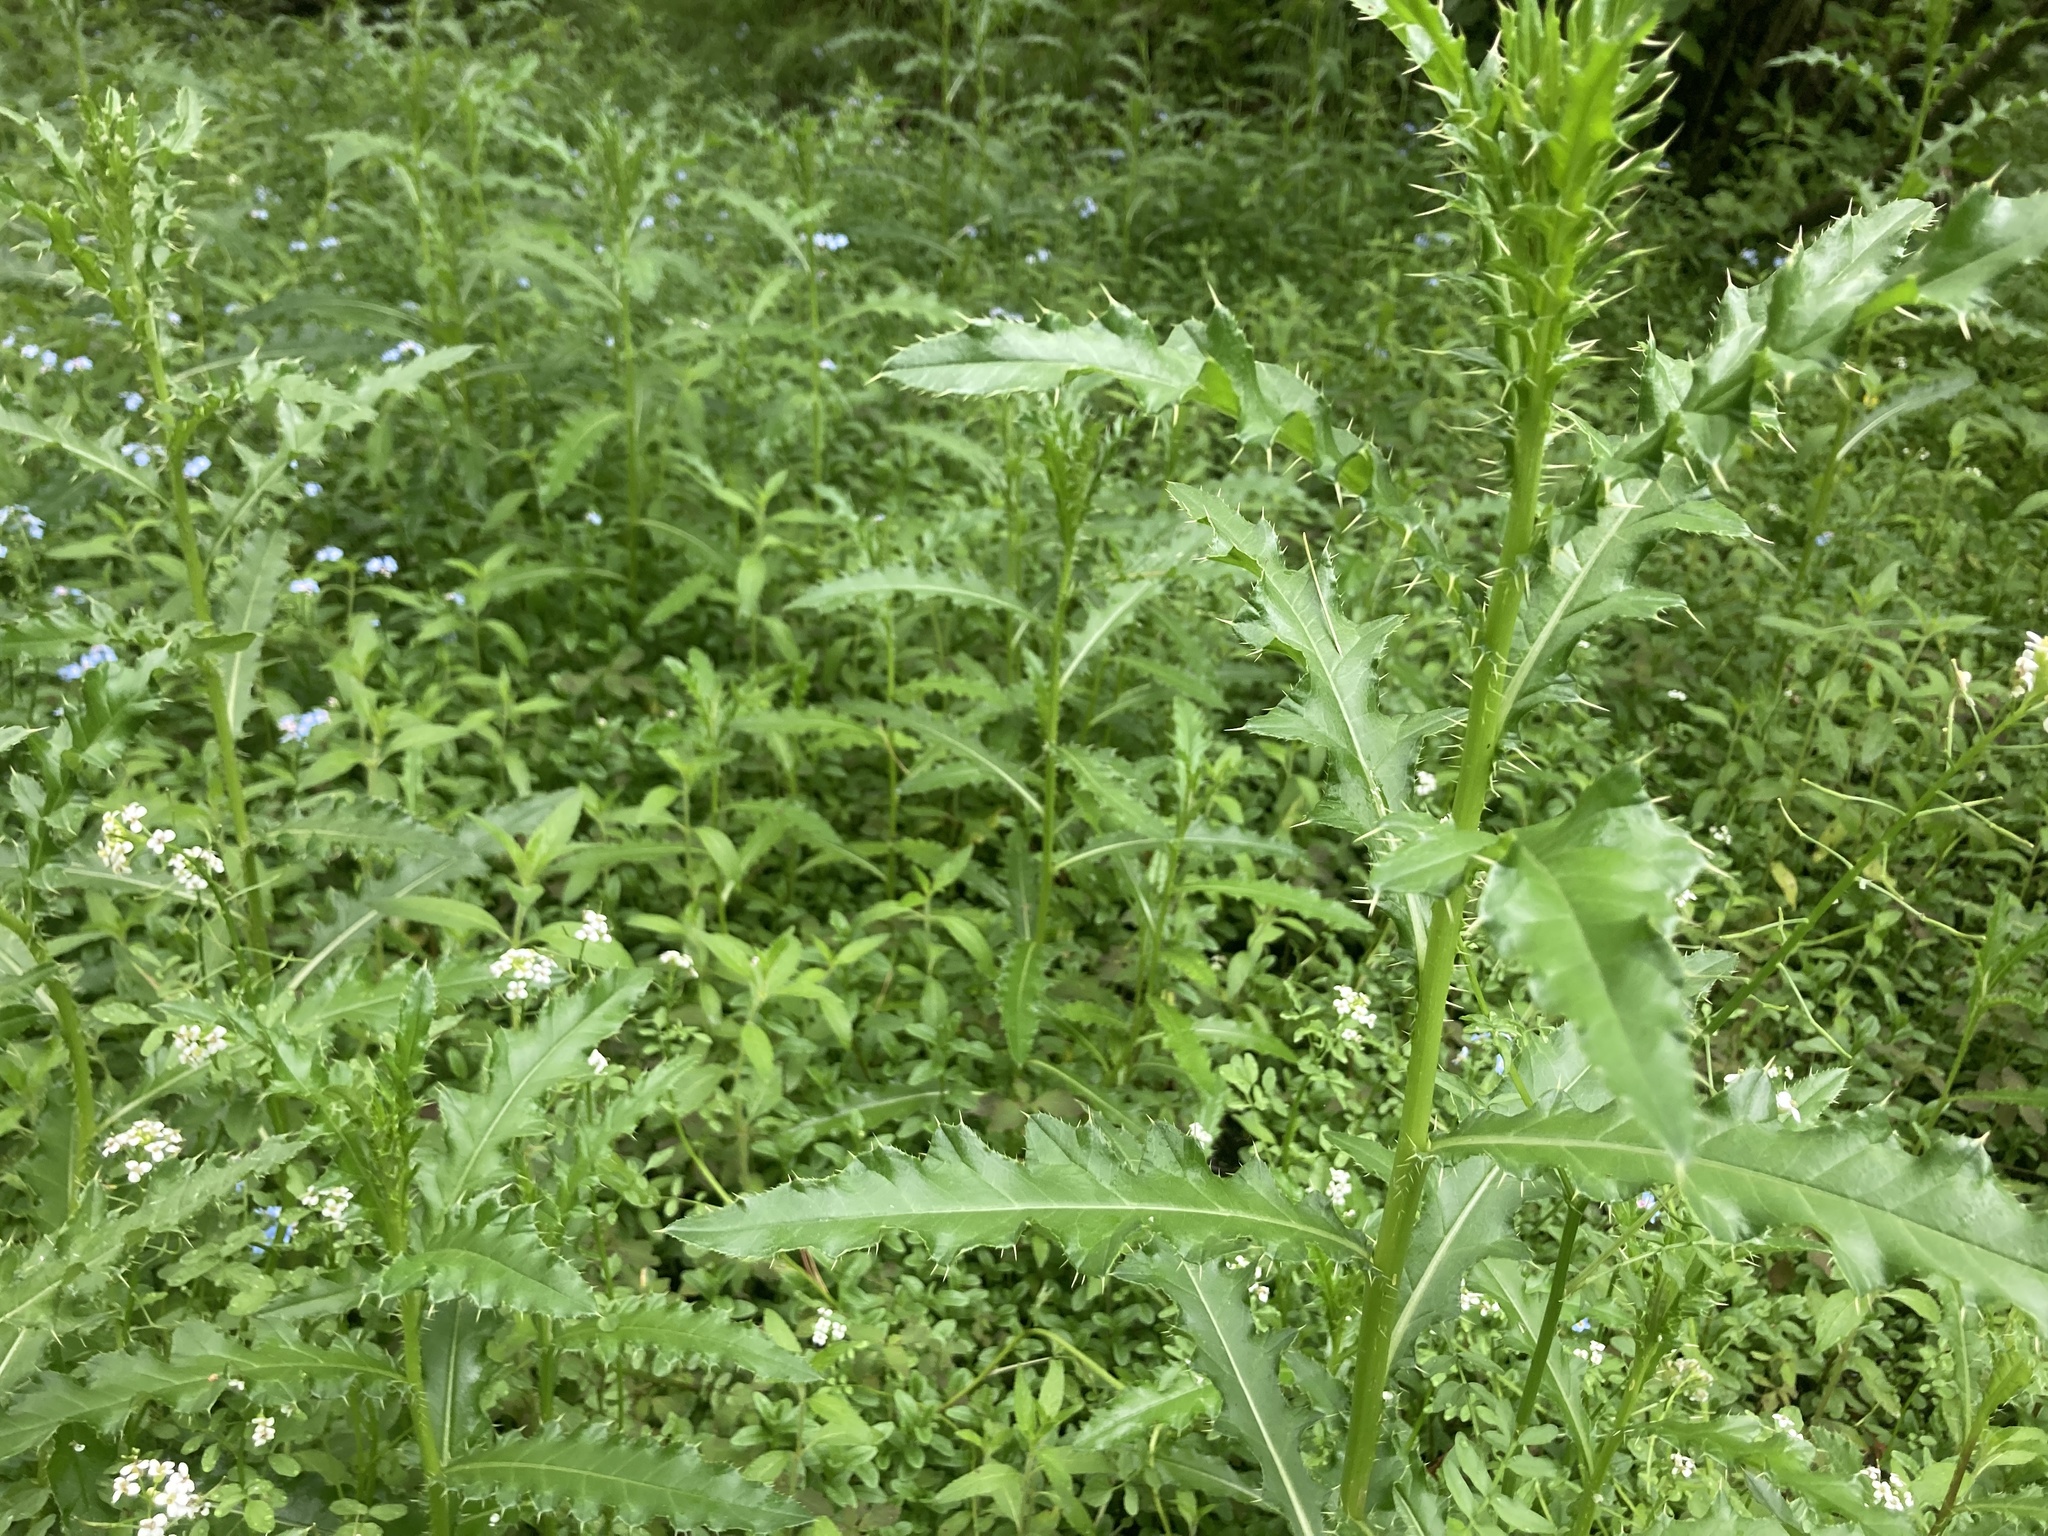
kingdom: Plantae
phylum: Tracheophyta
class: Magnoliopsida
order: Asterales
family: Asteraceae
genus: Cirsium
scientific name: Cirsium arvense
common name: Creeping thistle
